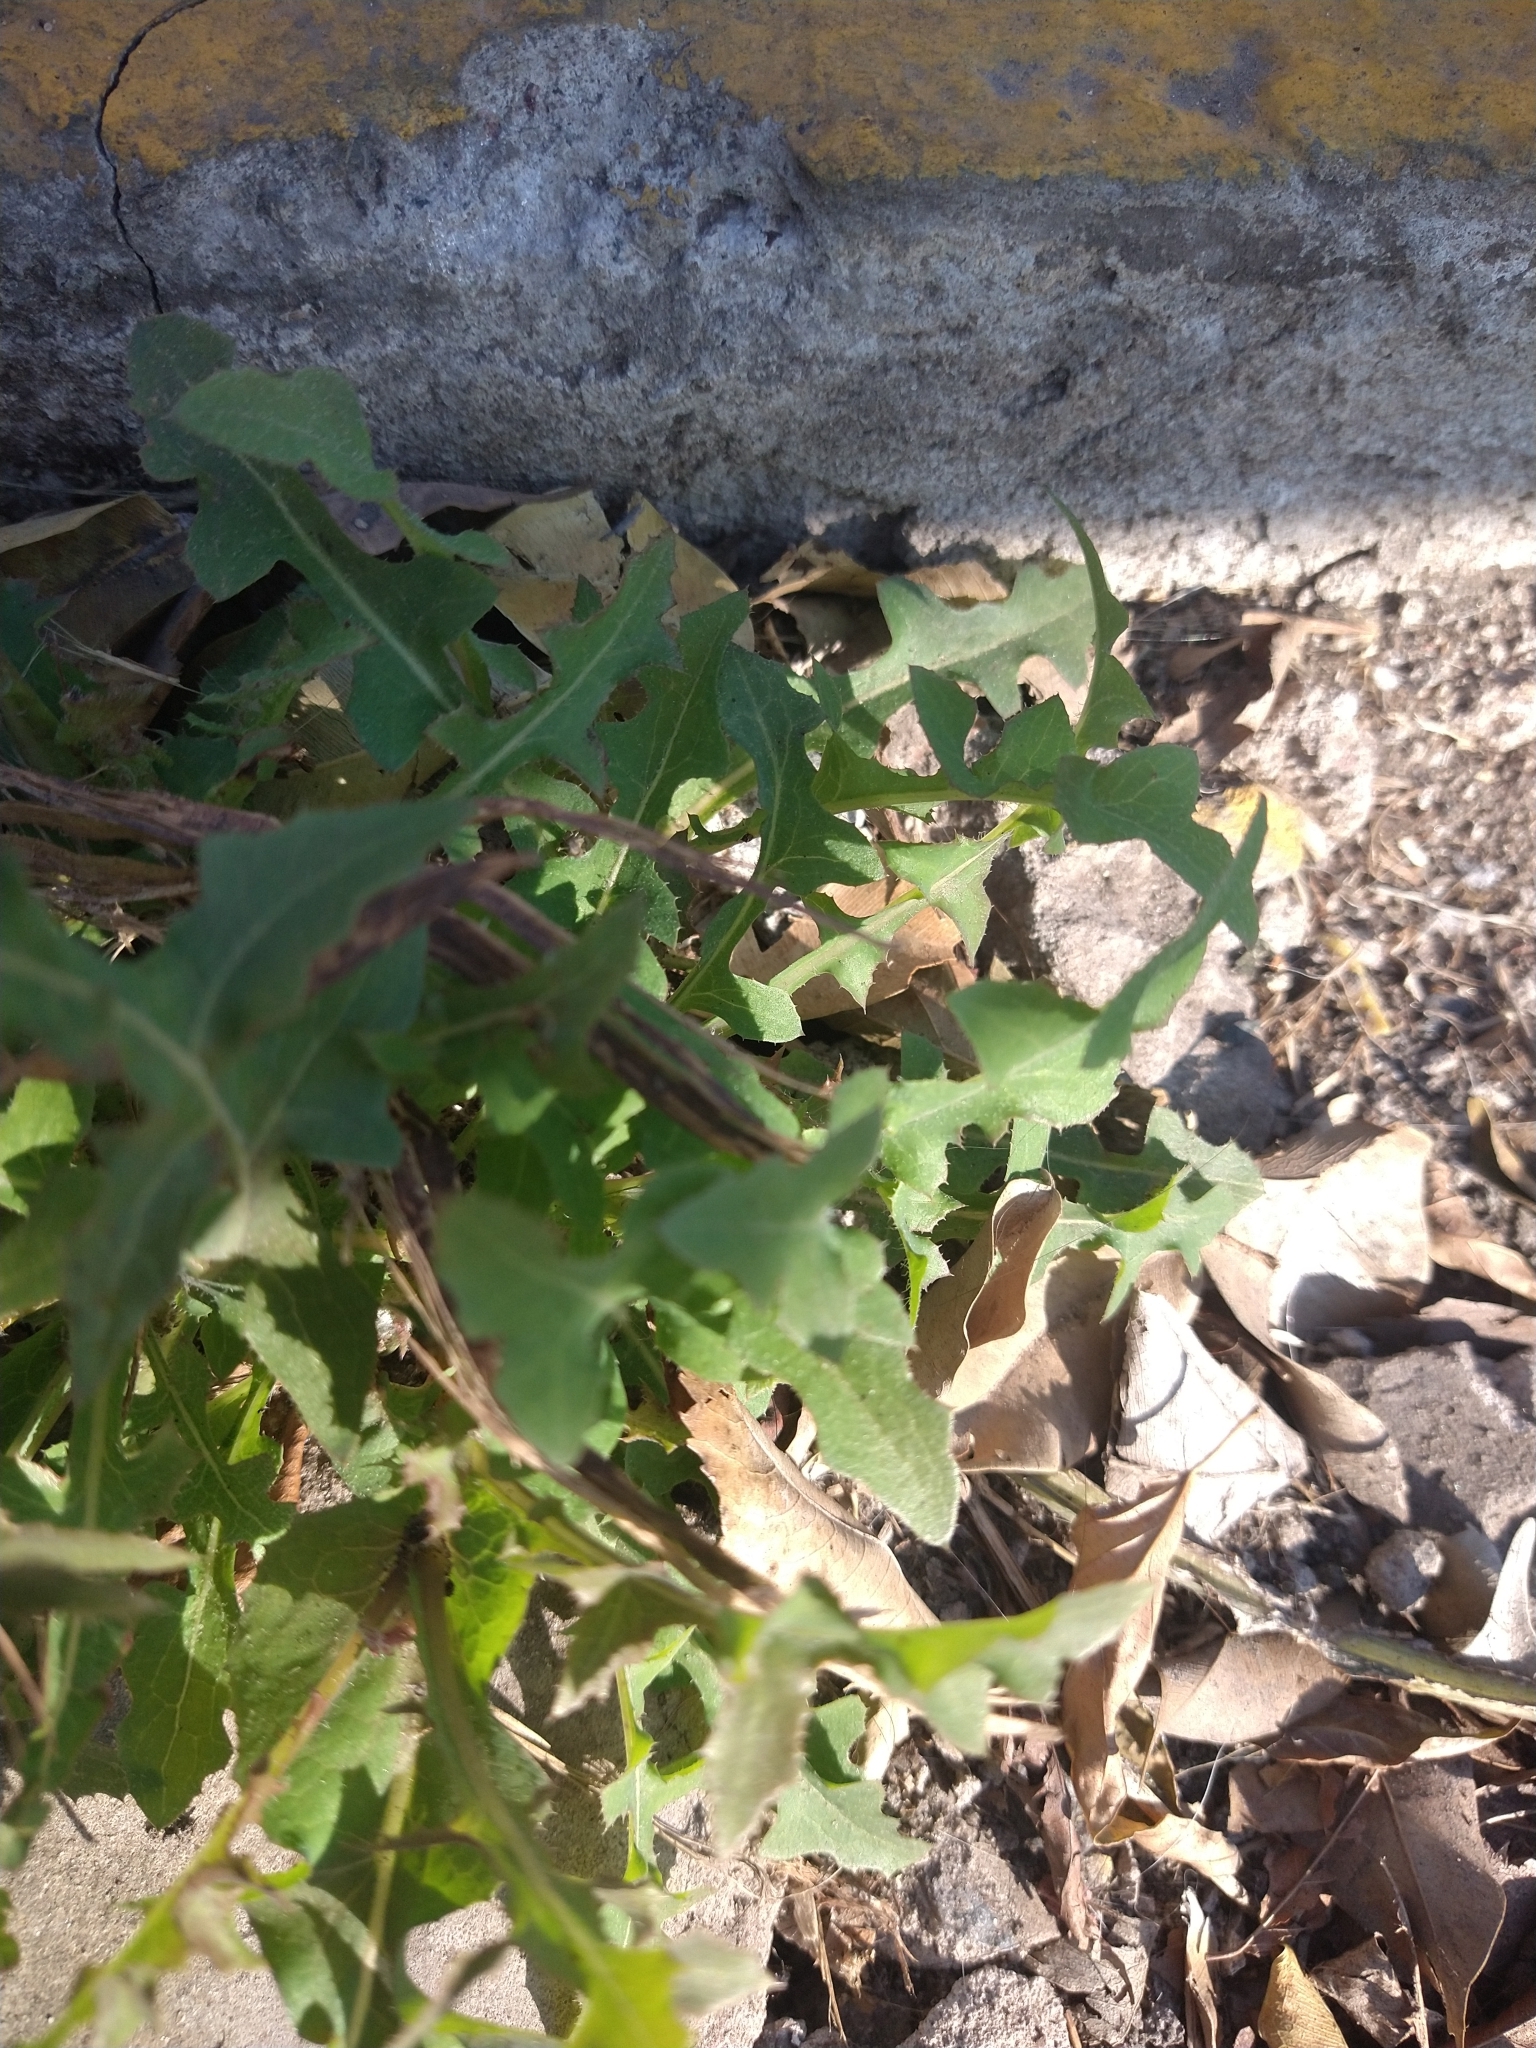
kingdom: Plantae
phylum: Tracheophyta
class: Magnoliopsida
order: Asterales
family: Asteraceae
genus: Sonchus
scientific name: Sonchus oleraceus
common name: Common sowthistle
